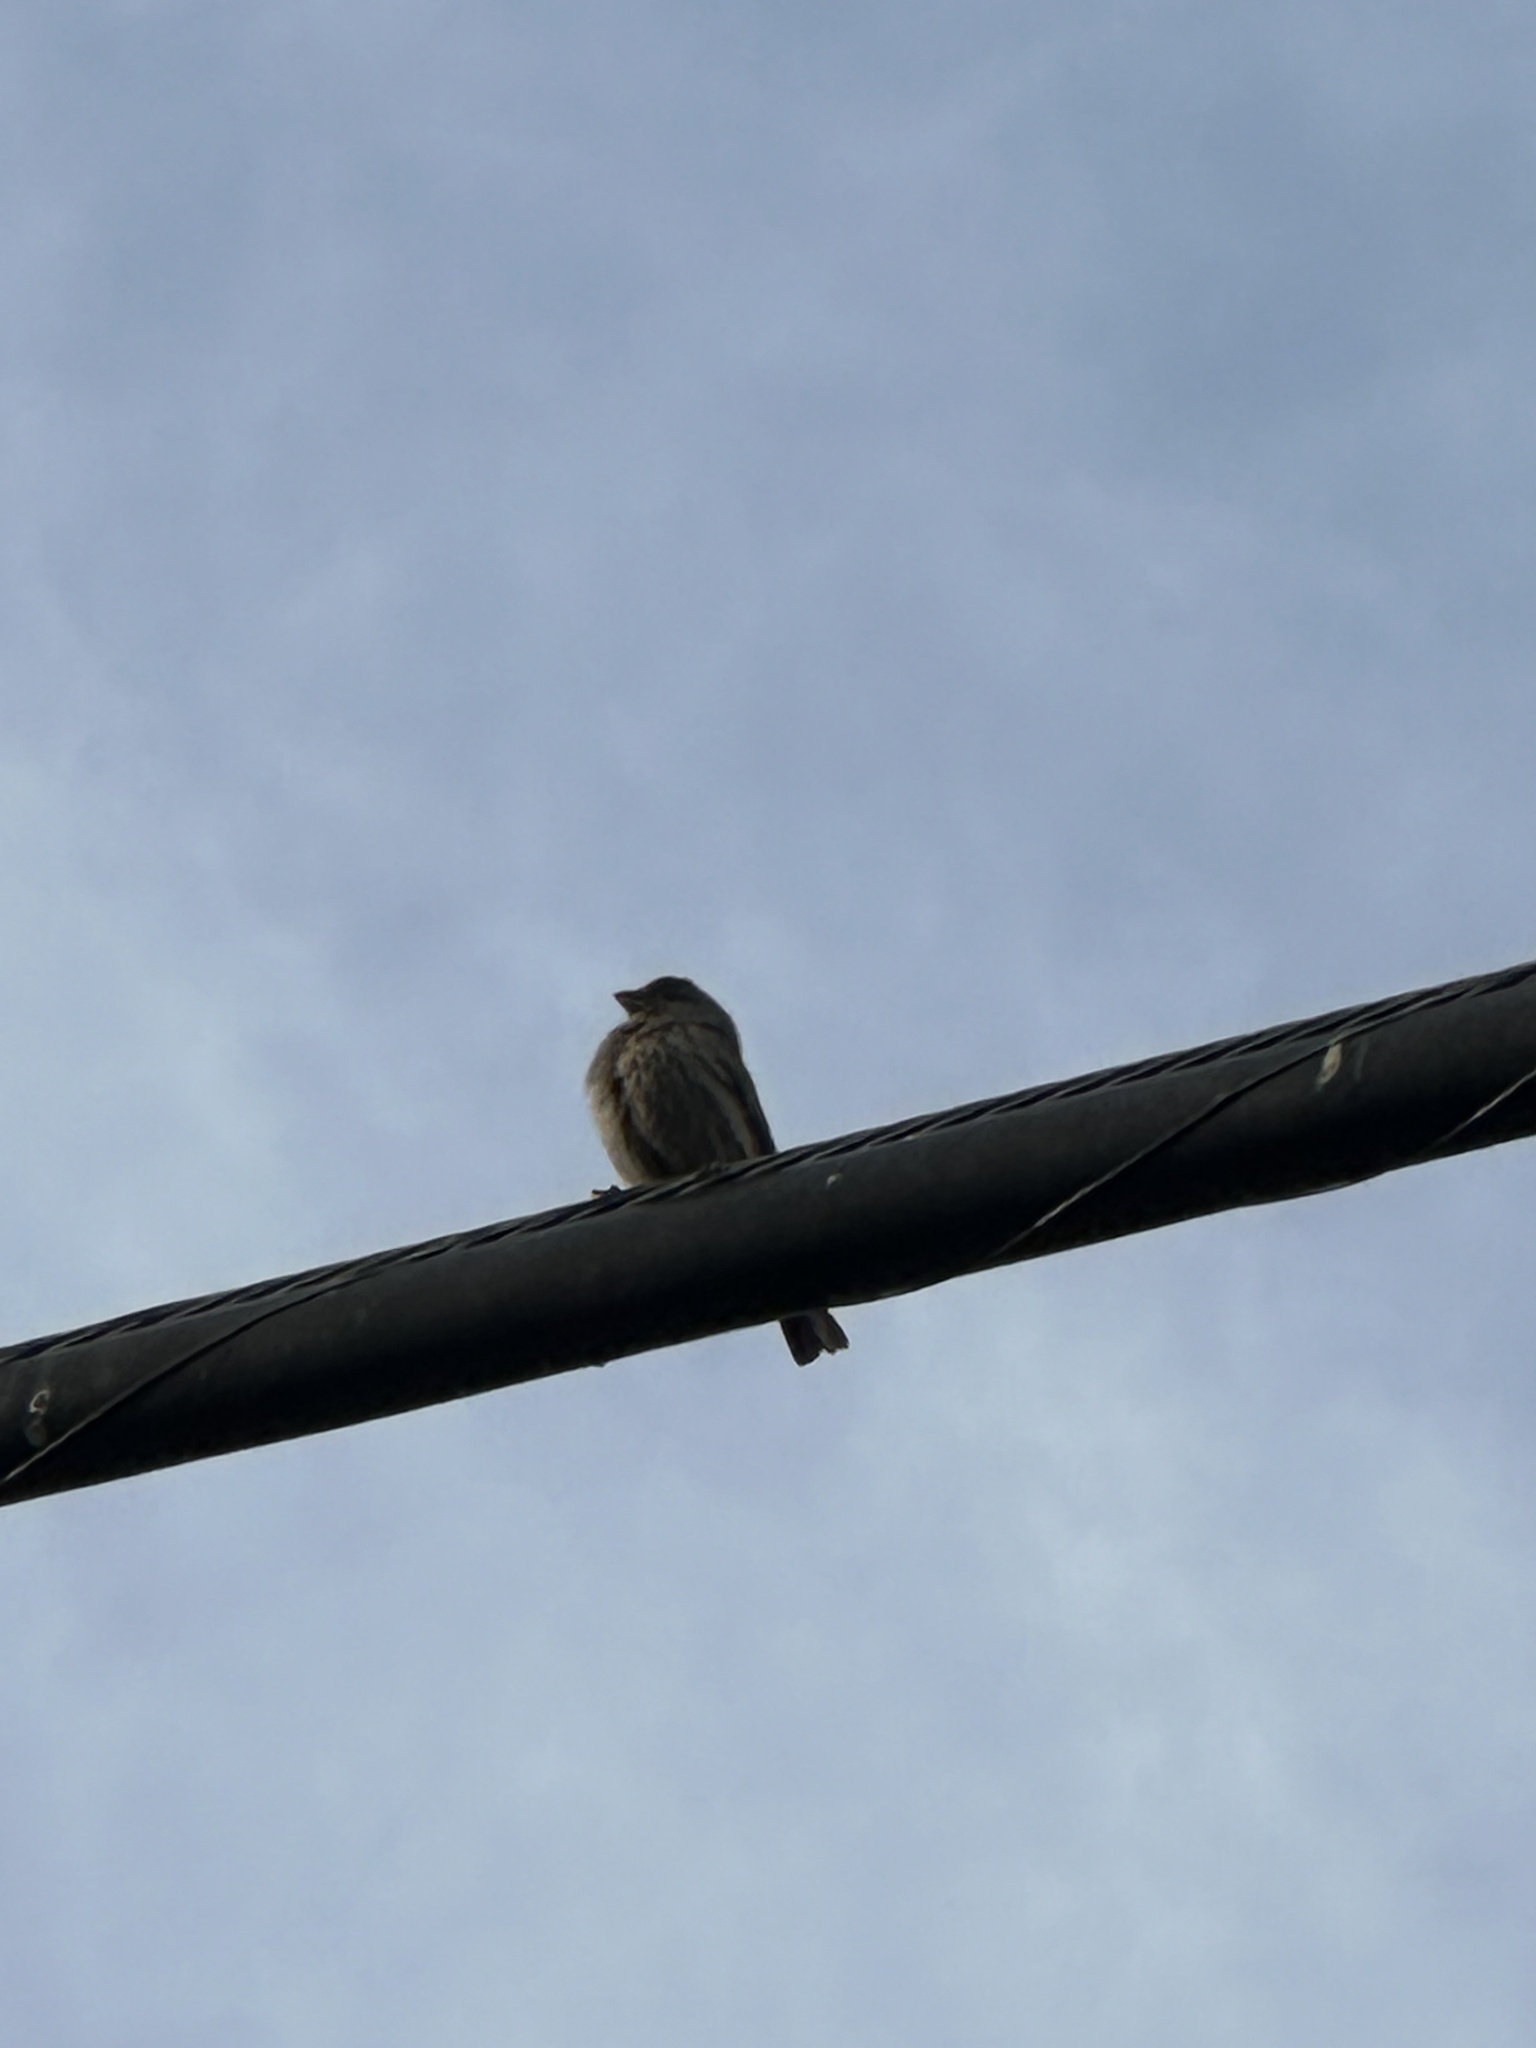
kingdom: Animalia
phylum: Chordata
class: Aves
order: Passeriformes
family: Fringillidae
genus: Haemorhous
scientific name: Haemorhous mexicanus
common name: House finch
